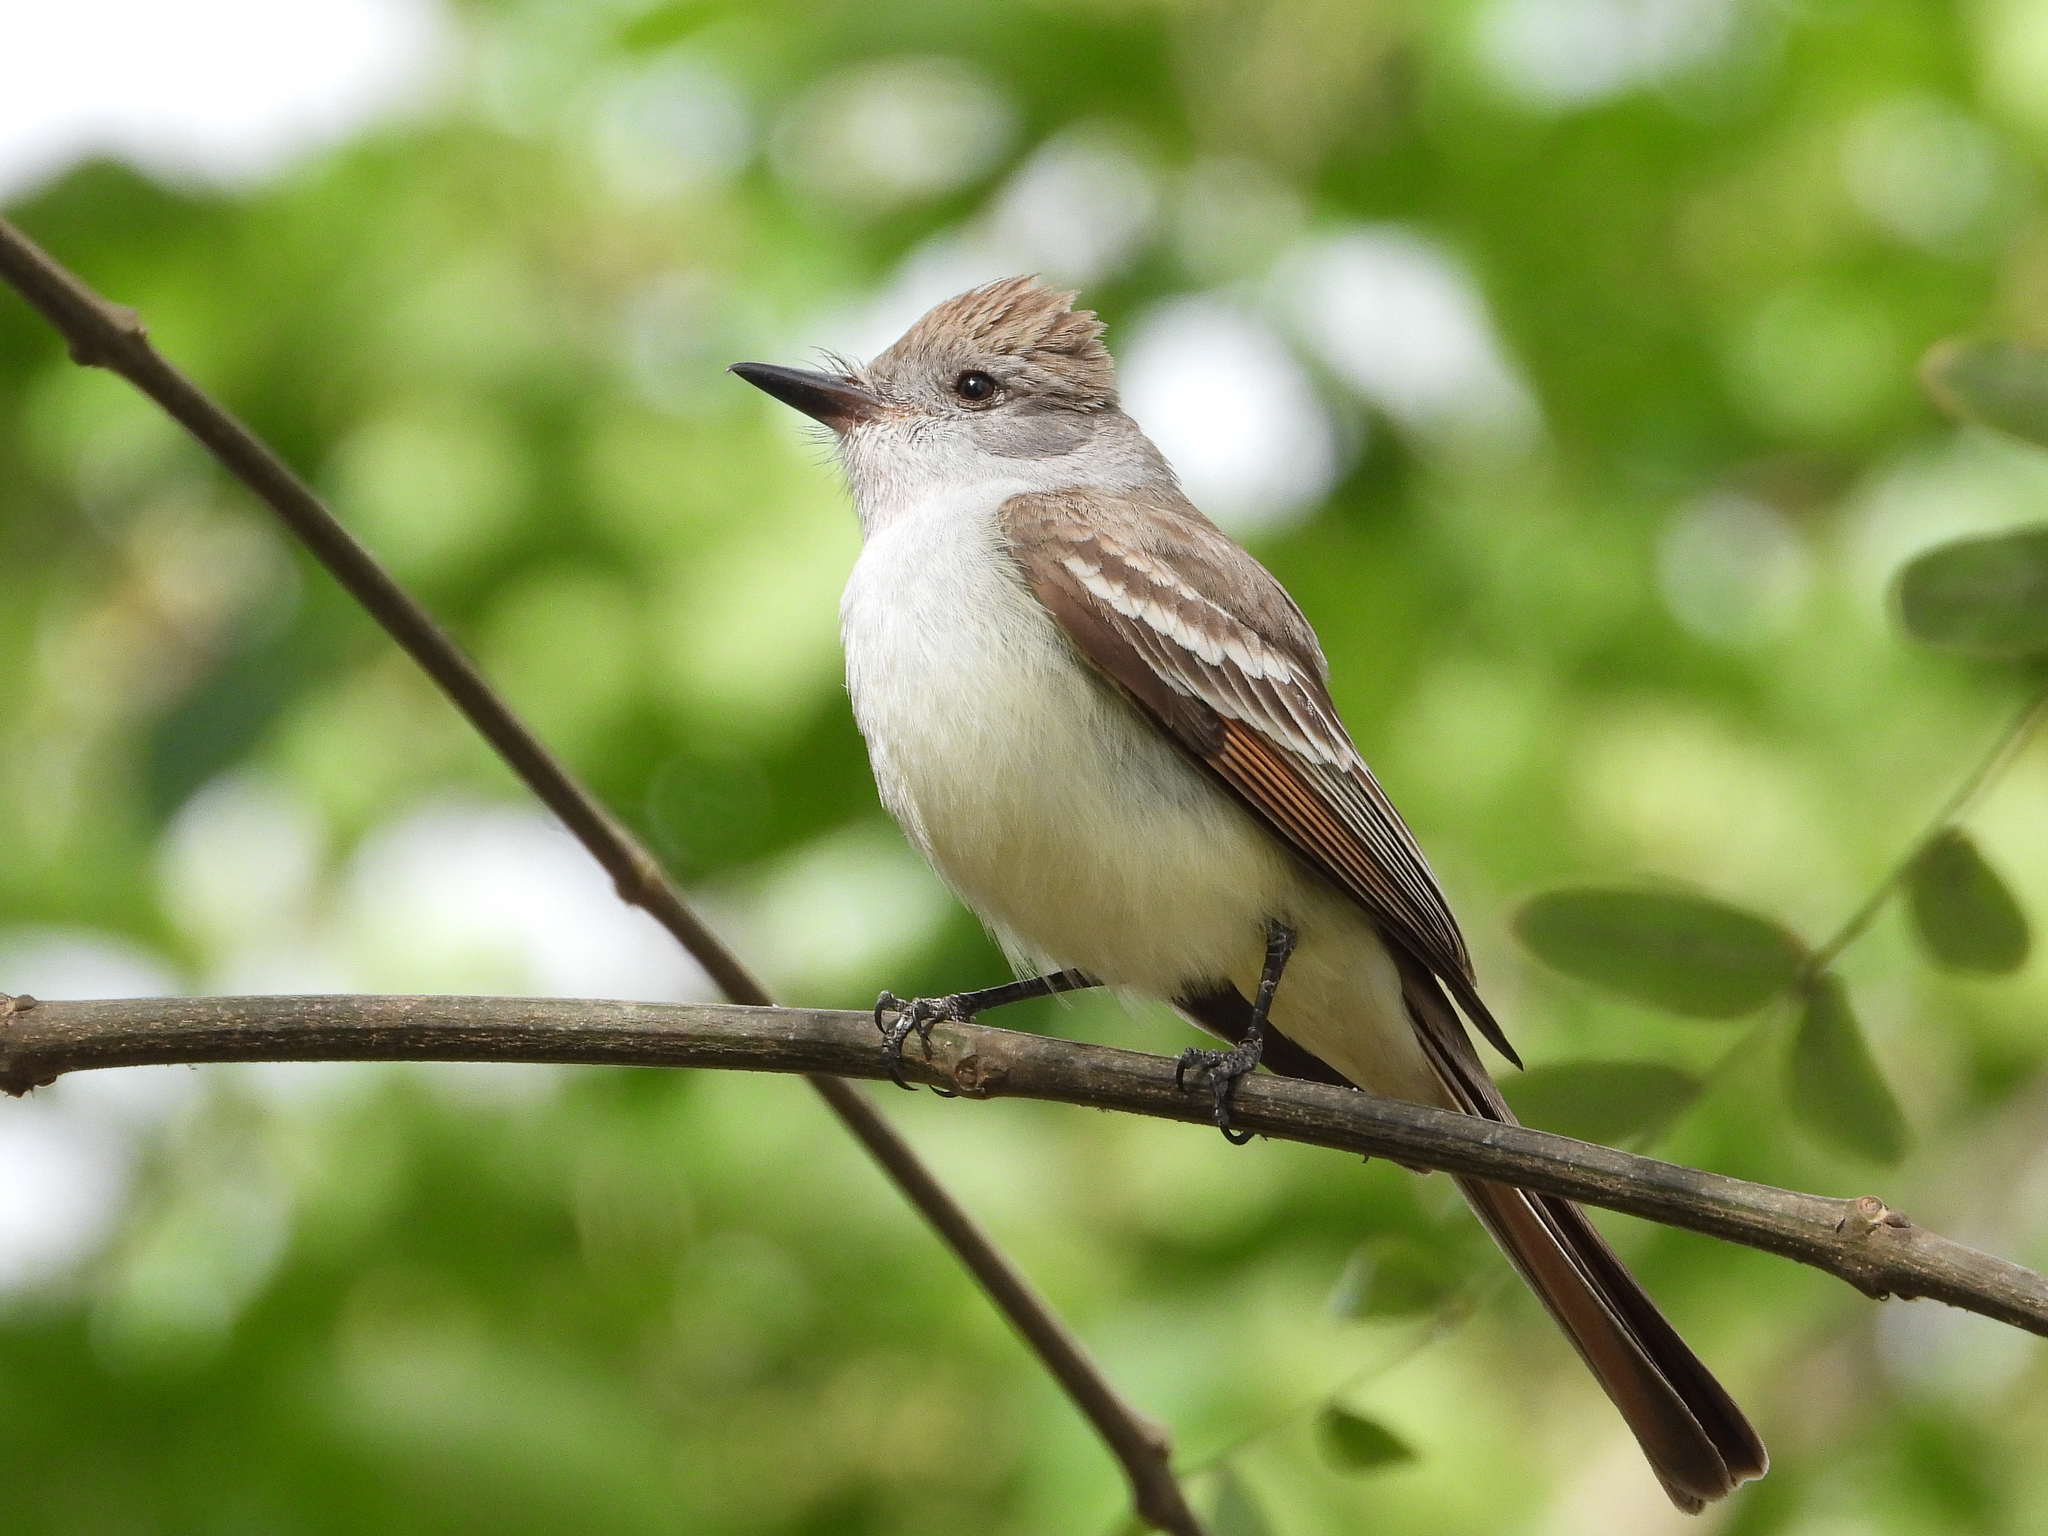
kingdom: Animalia
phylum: Chordata
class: Aves
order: Passeriformes
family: Tyrannidae
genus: Myiarchus
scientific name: Myiarchus cinerascens
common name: Ash-throated flycatcher
